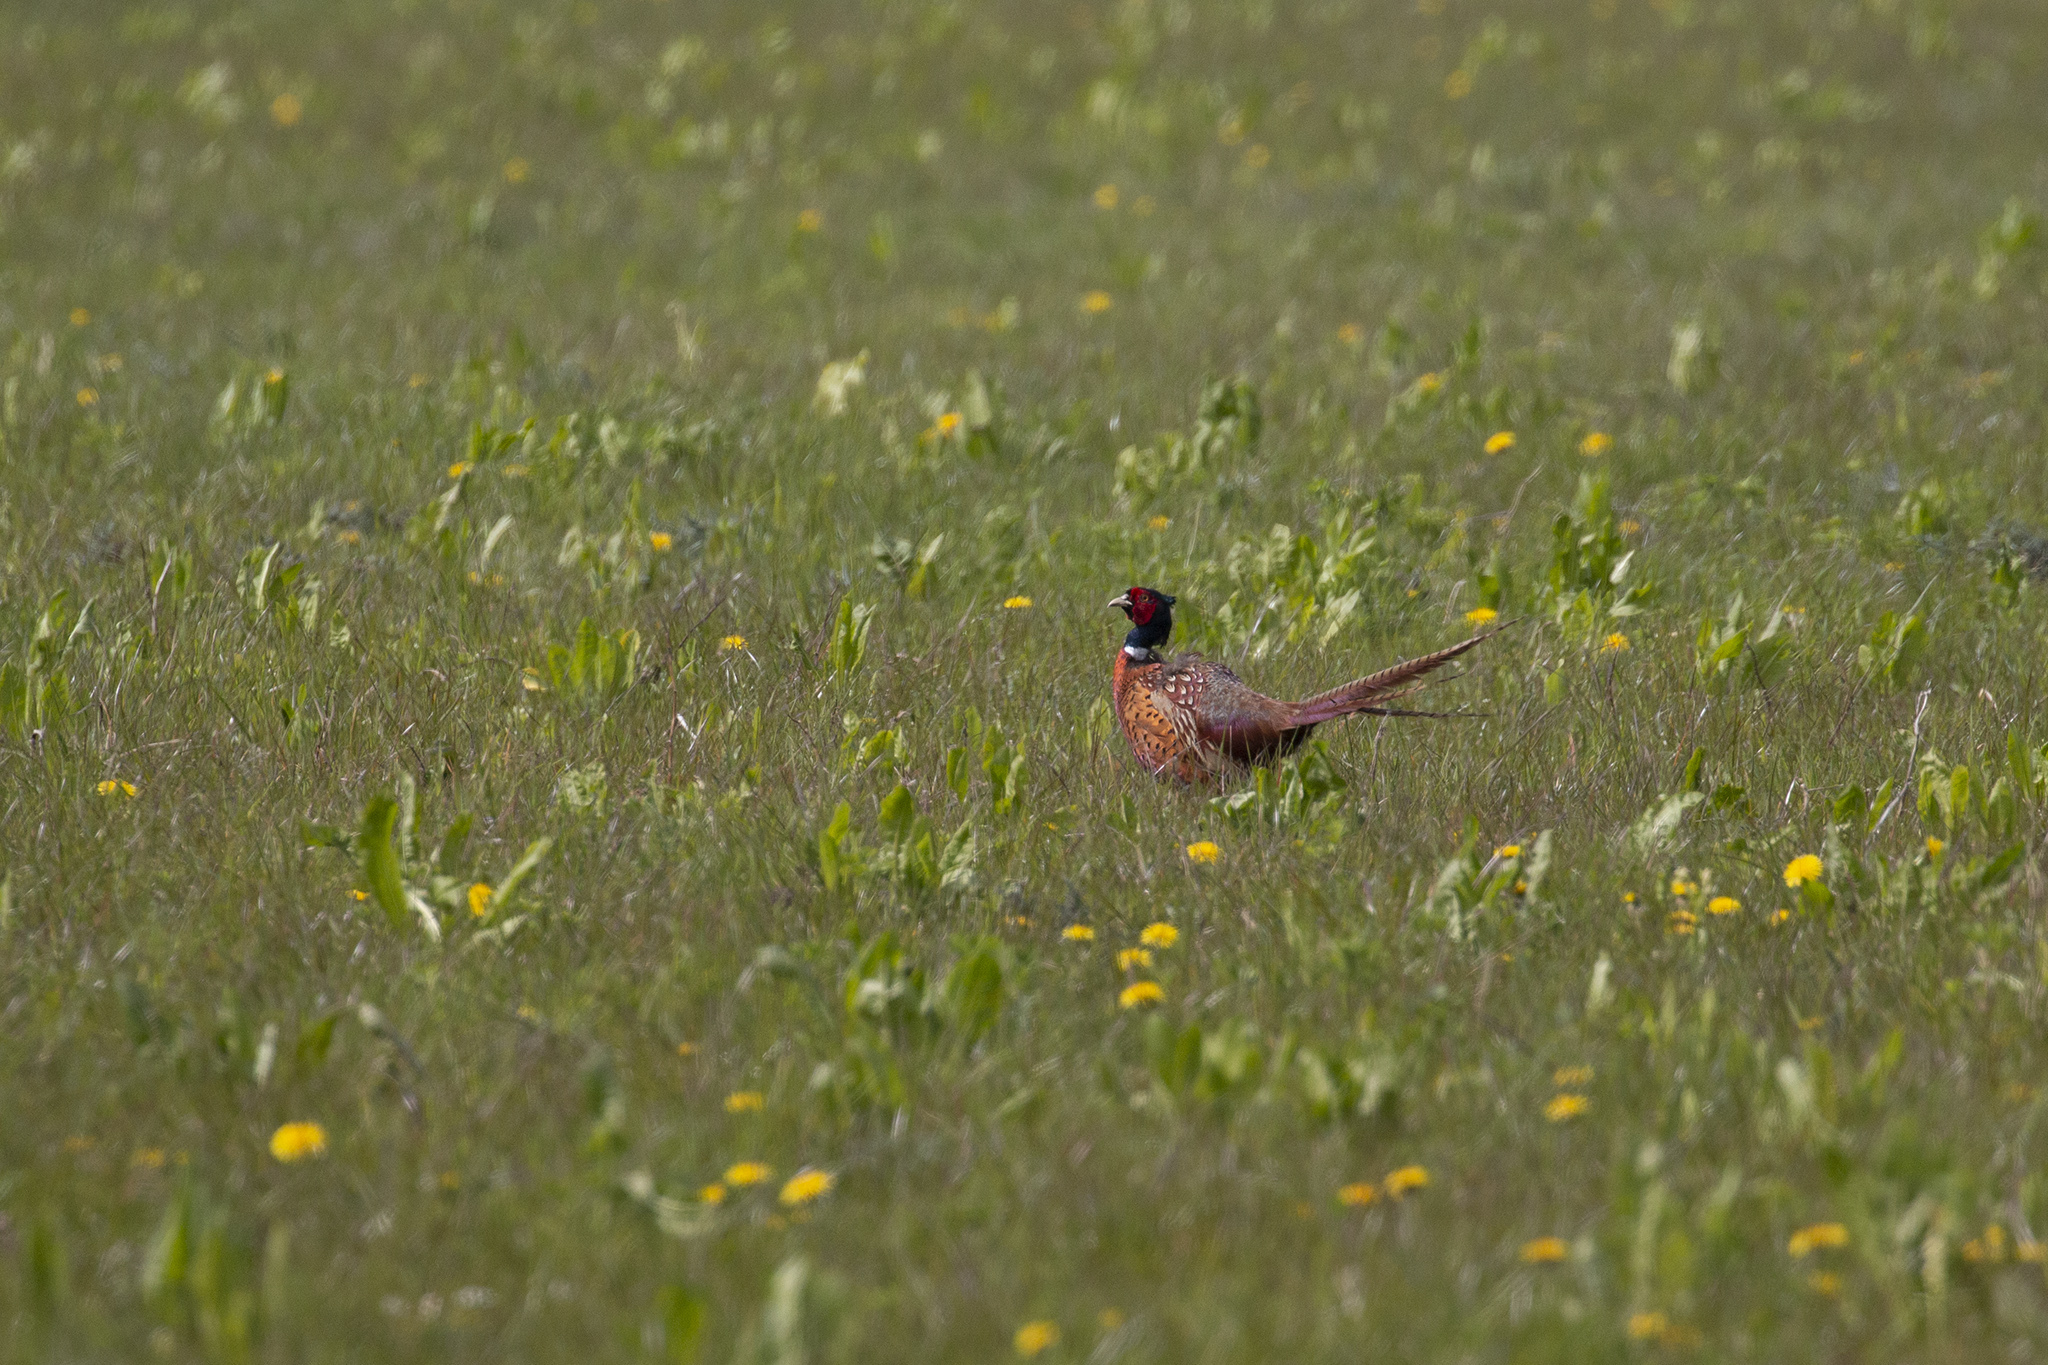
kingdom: Animalia
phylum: Chordata
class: Aves
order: Galliformes
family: Phasianidae
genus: Phasianus
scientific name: Phasianus colchicus
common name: Common pheasant
